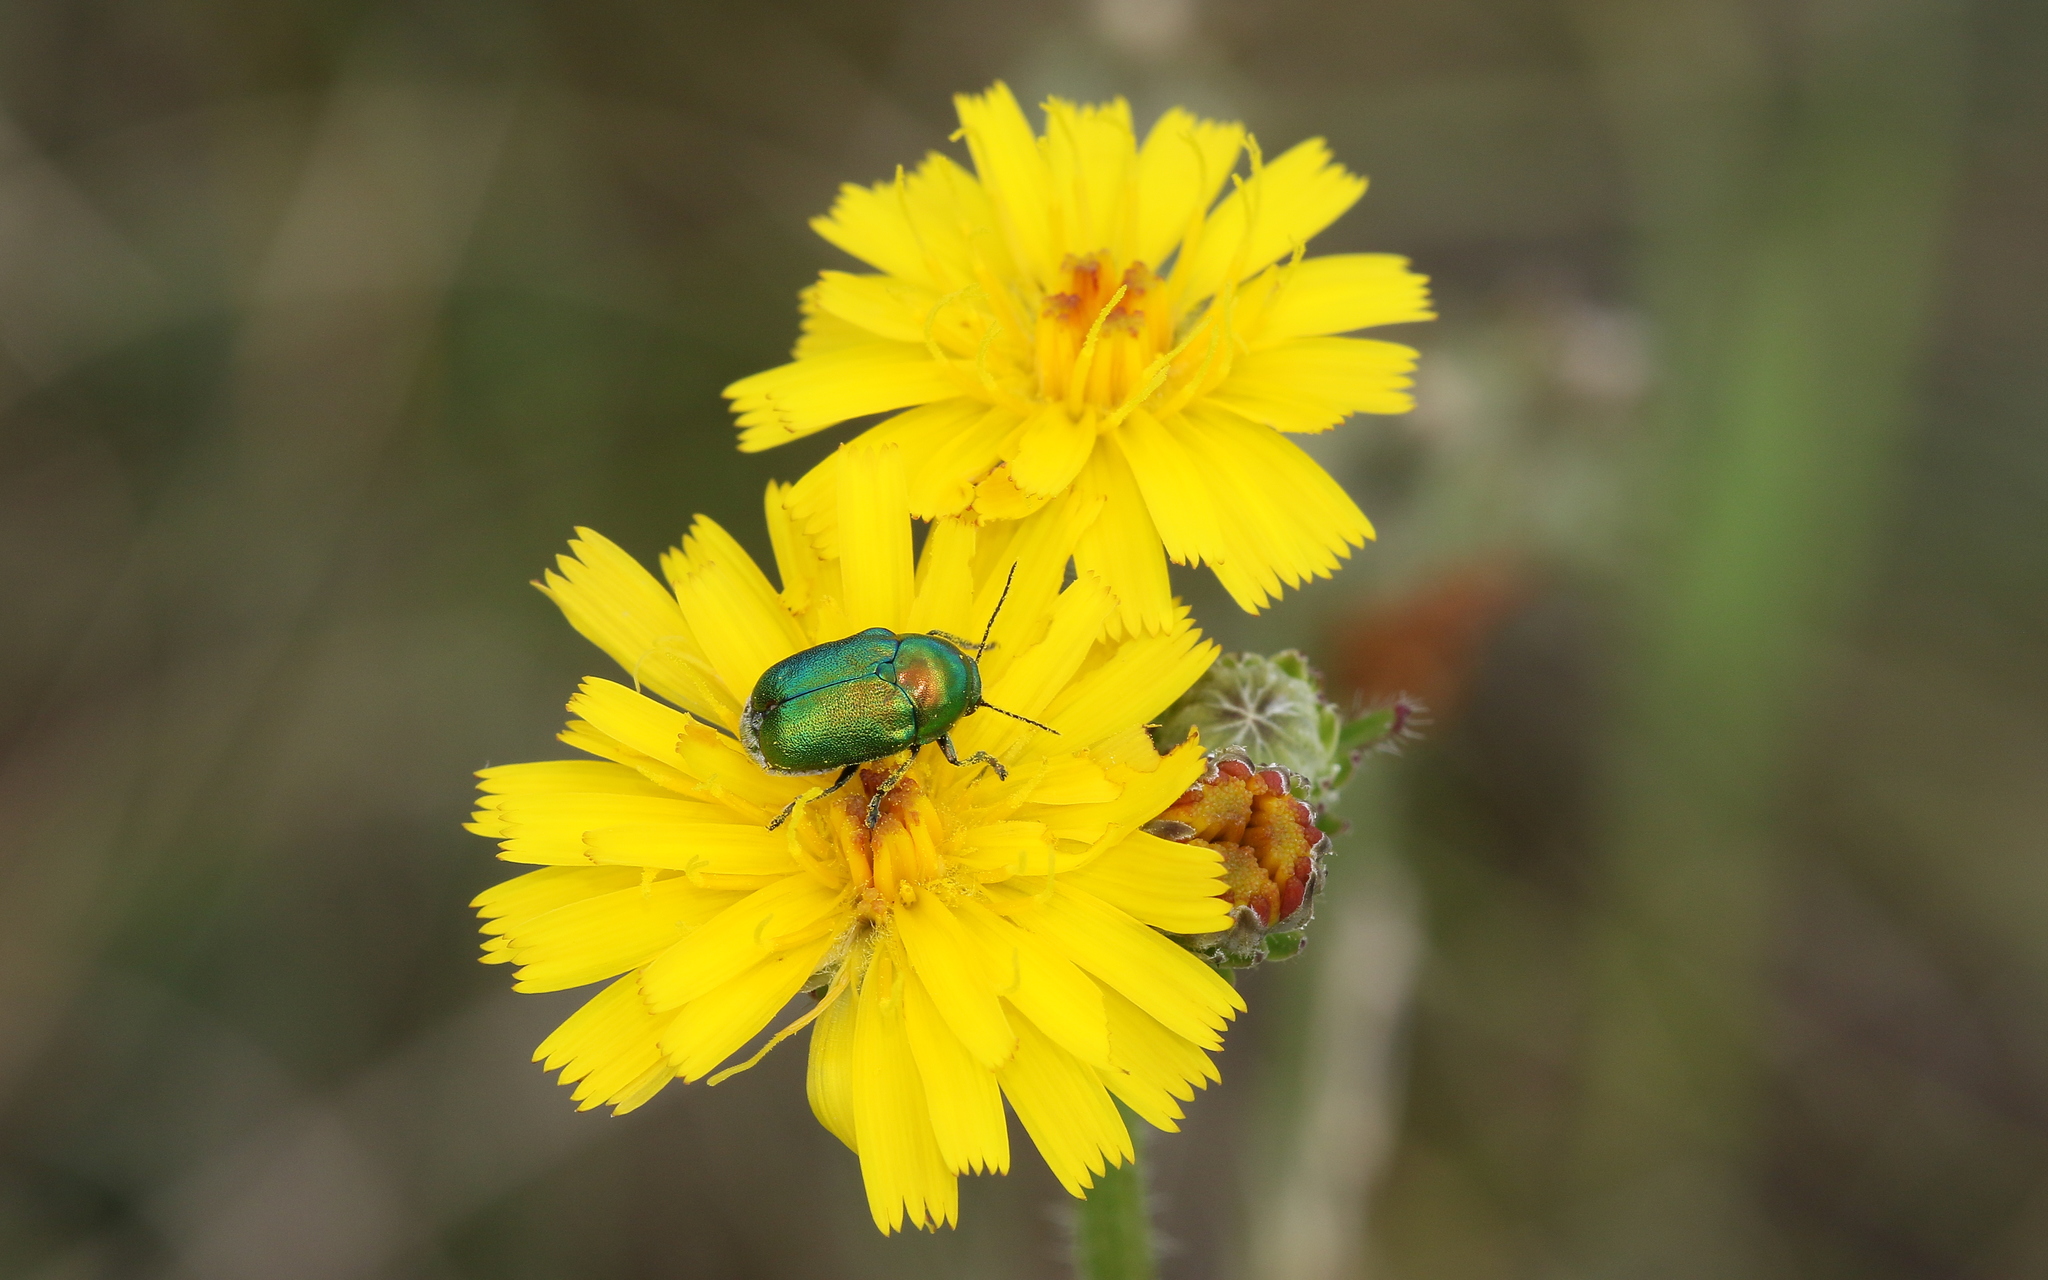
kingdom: Animalia
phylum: Arthropoda
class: Insecta
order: Coleoptera
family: Chrysomelidae
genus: Cryptocephalus
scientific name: Cryptocephalus sericeus
